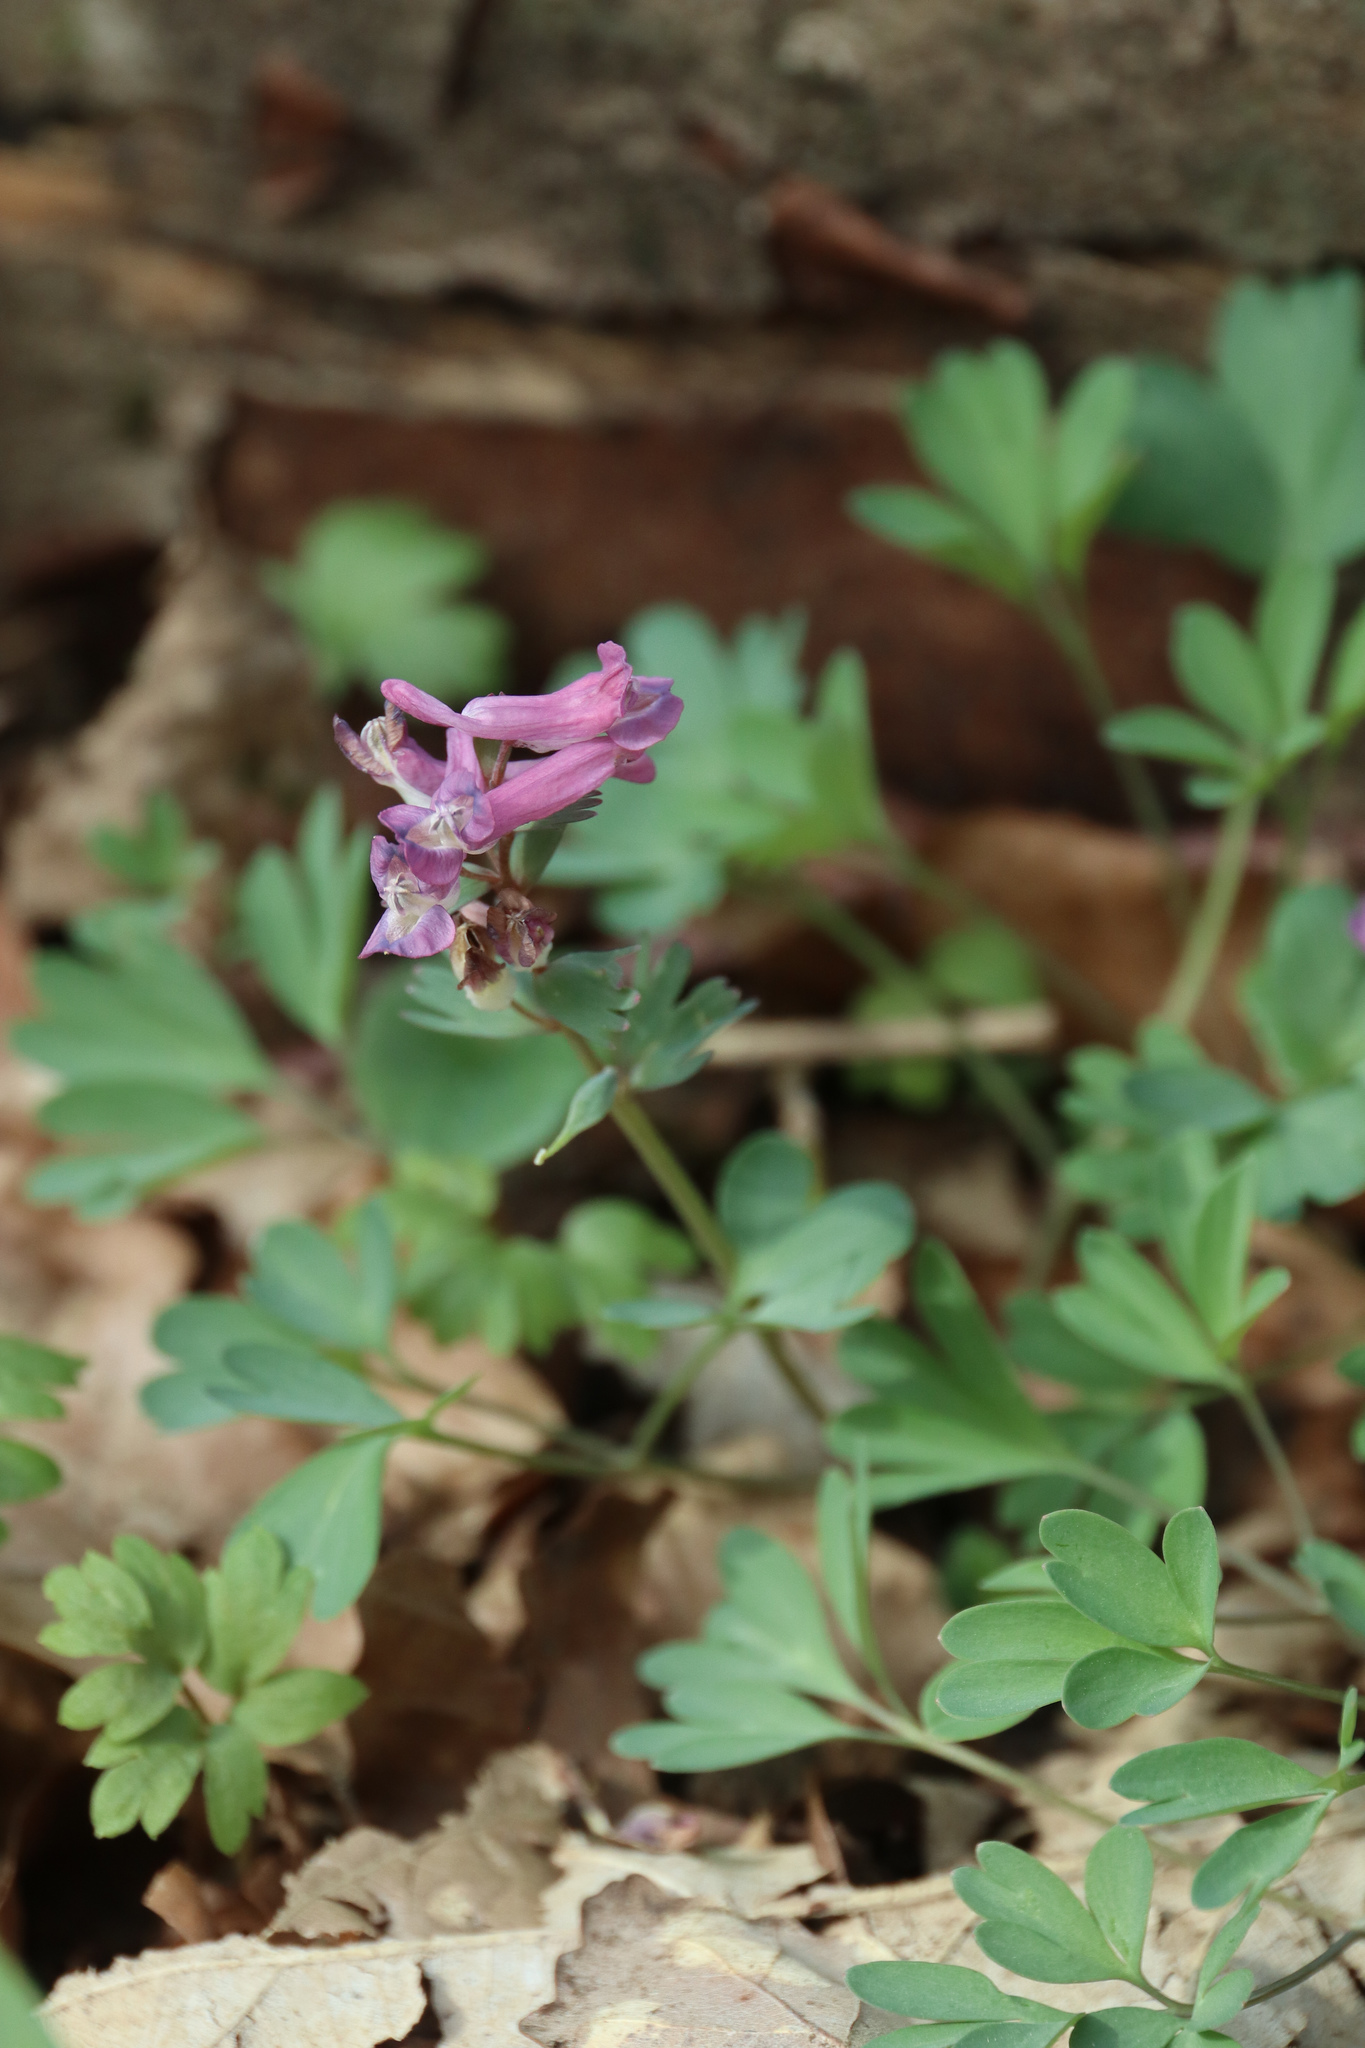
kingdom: Plantae
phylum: Tracheophyta
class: Magnoliopsida
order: Ranunculales
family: Papaveraceae
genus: Corydalis
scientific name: Corydalis solida
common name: Bird-in-a-bush
